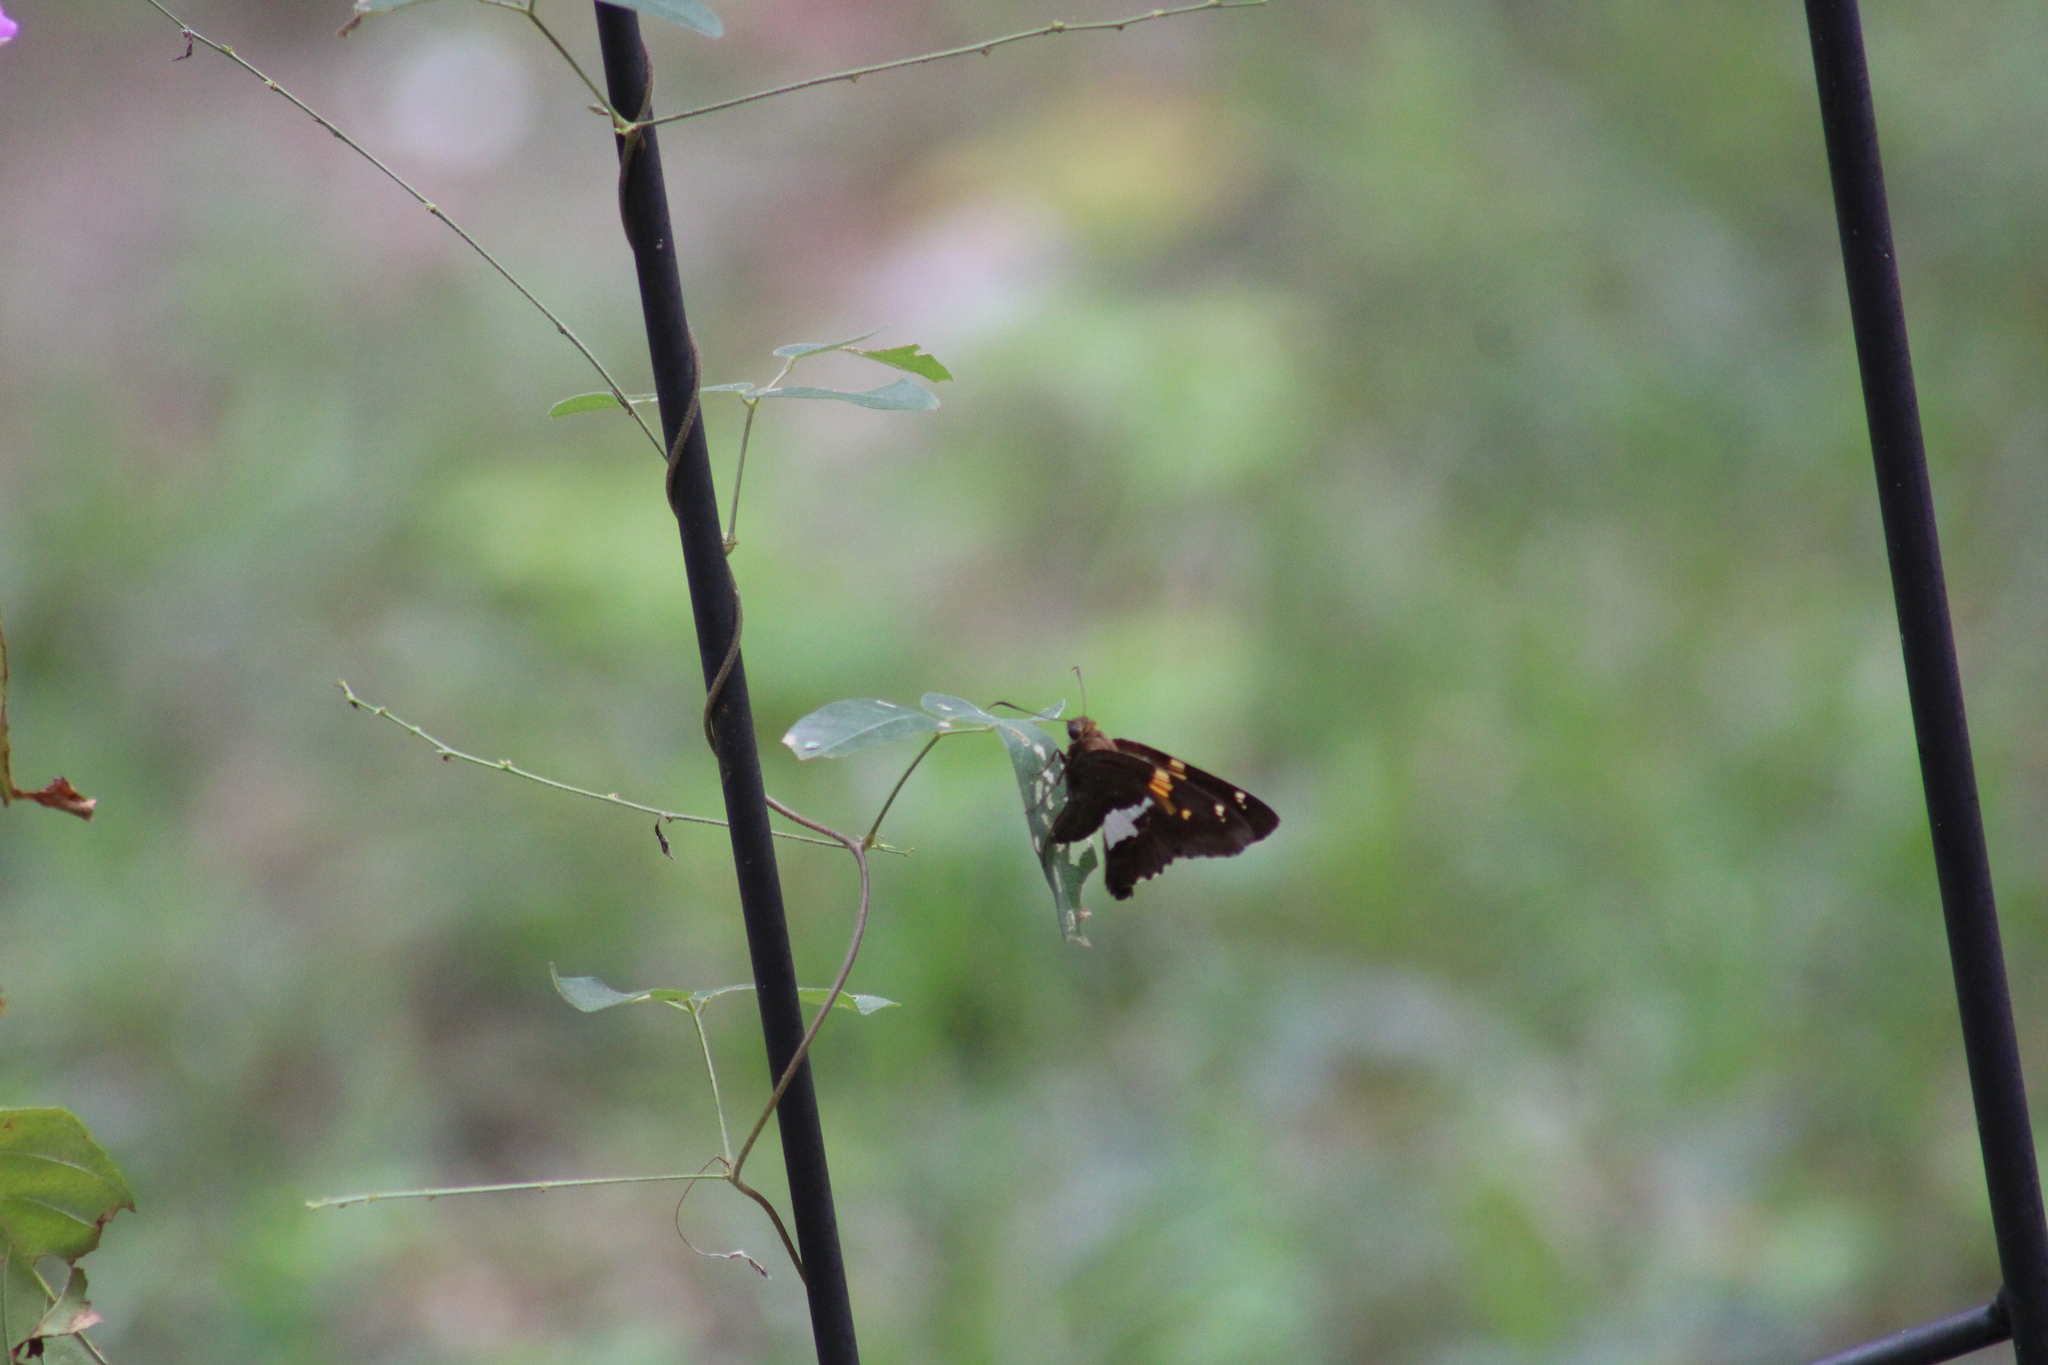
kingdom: Animalia
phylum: Arthropoda
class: Insecta
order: Lepidoptera
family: Hesperiidae
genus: Epargyreus
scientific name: Epargyreus clarus
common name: Silver-spotted skipper
